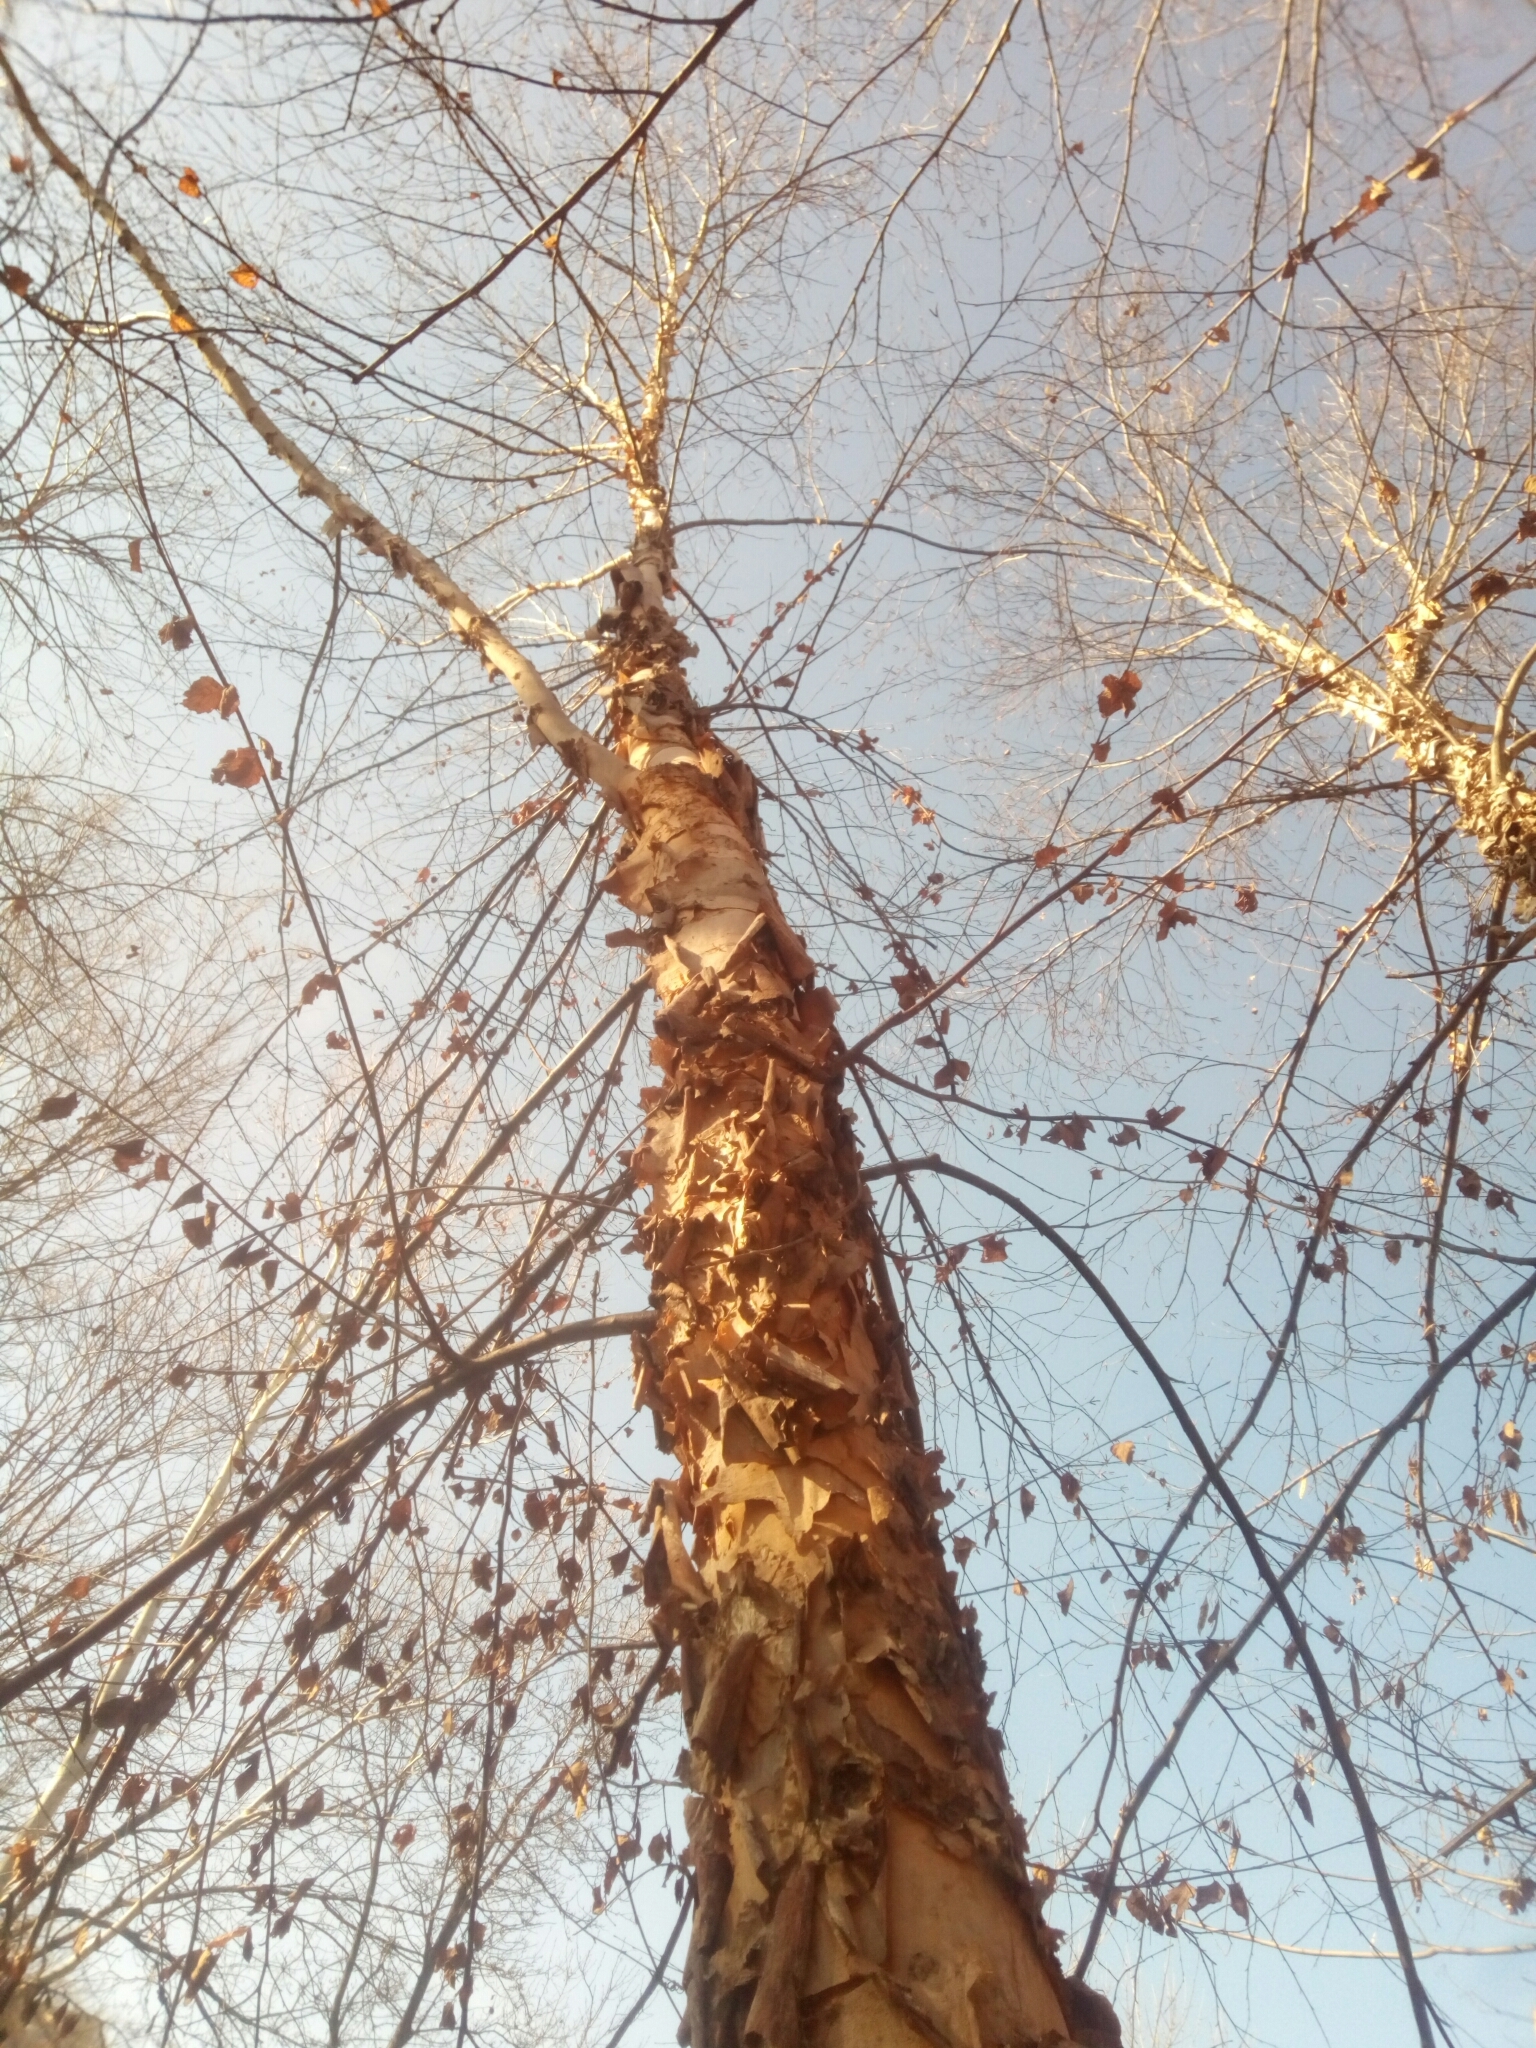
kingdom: Plantae
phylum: Tracheophyta
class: Magnoliopsida
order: Fagales
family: Betulaceae
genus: Betula
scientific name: Betula nigra
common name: Black birch
